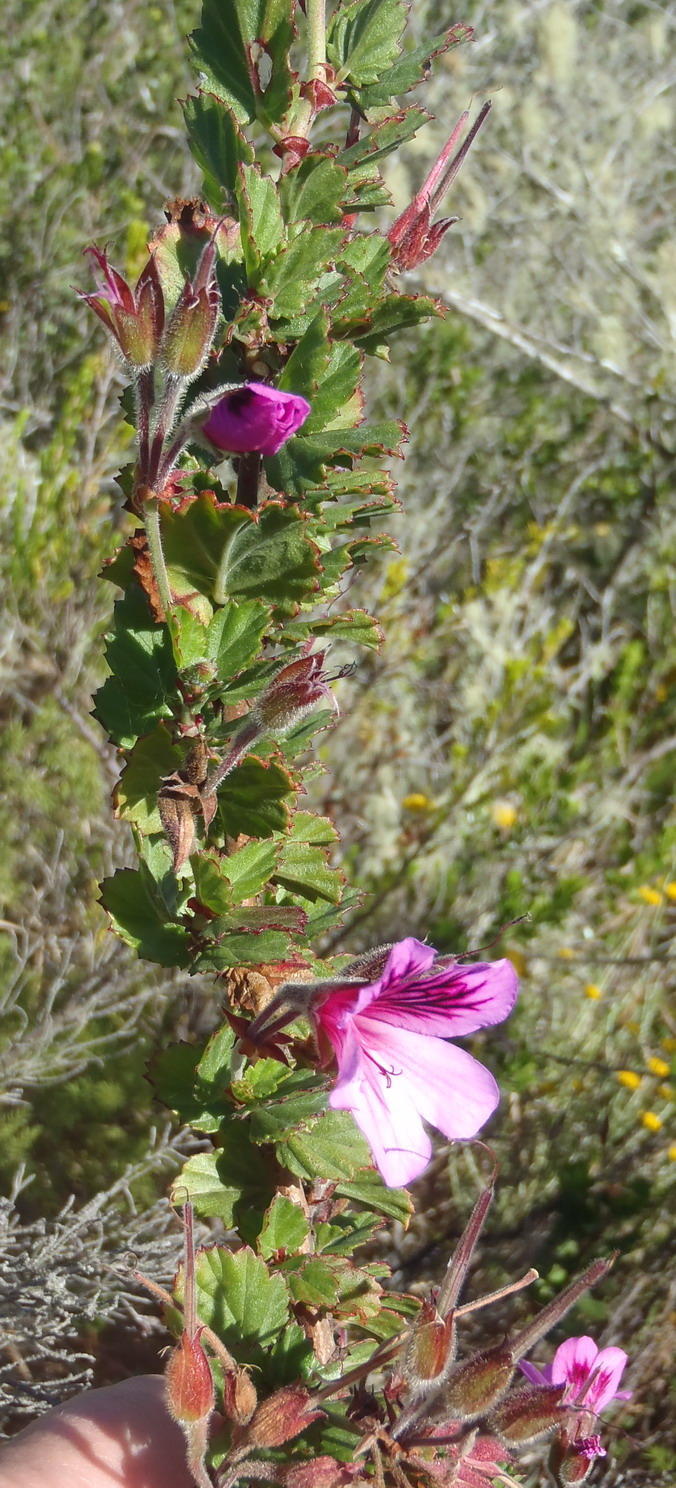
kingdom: Plantae
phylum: Tracheophyta
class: Magnoliopsida
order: Geraniales
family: Geraniaceae
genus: Pelargonium
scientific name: Pelargonium betulinum
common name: Birch-leaf pelargonium
